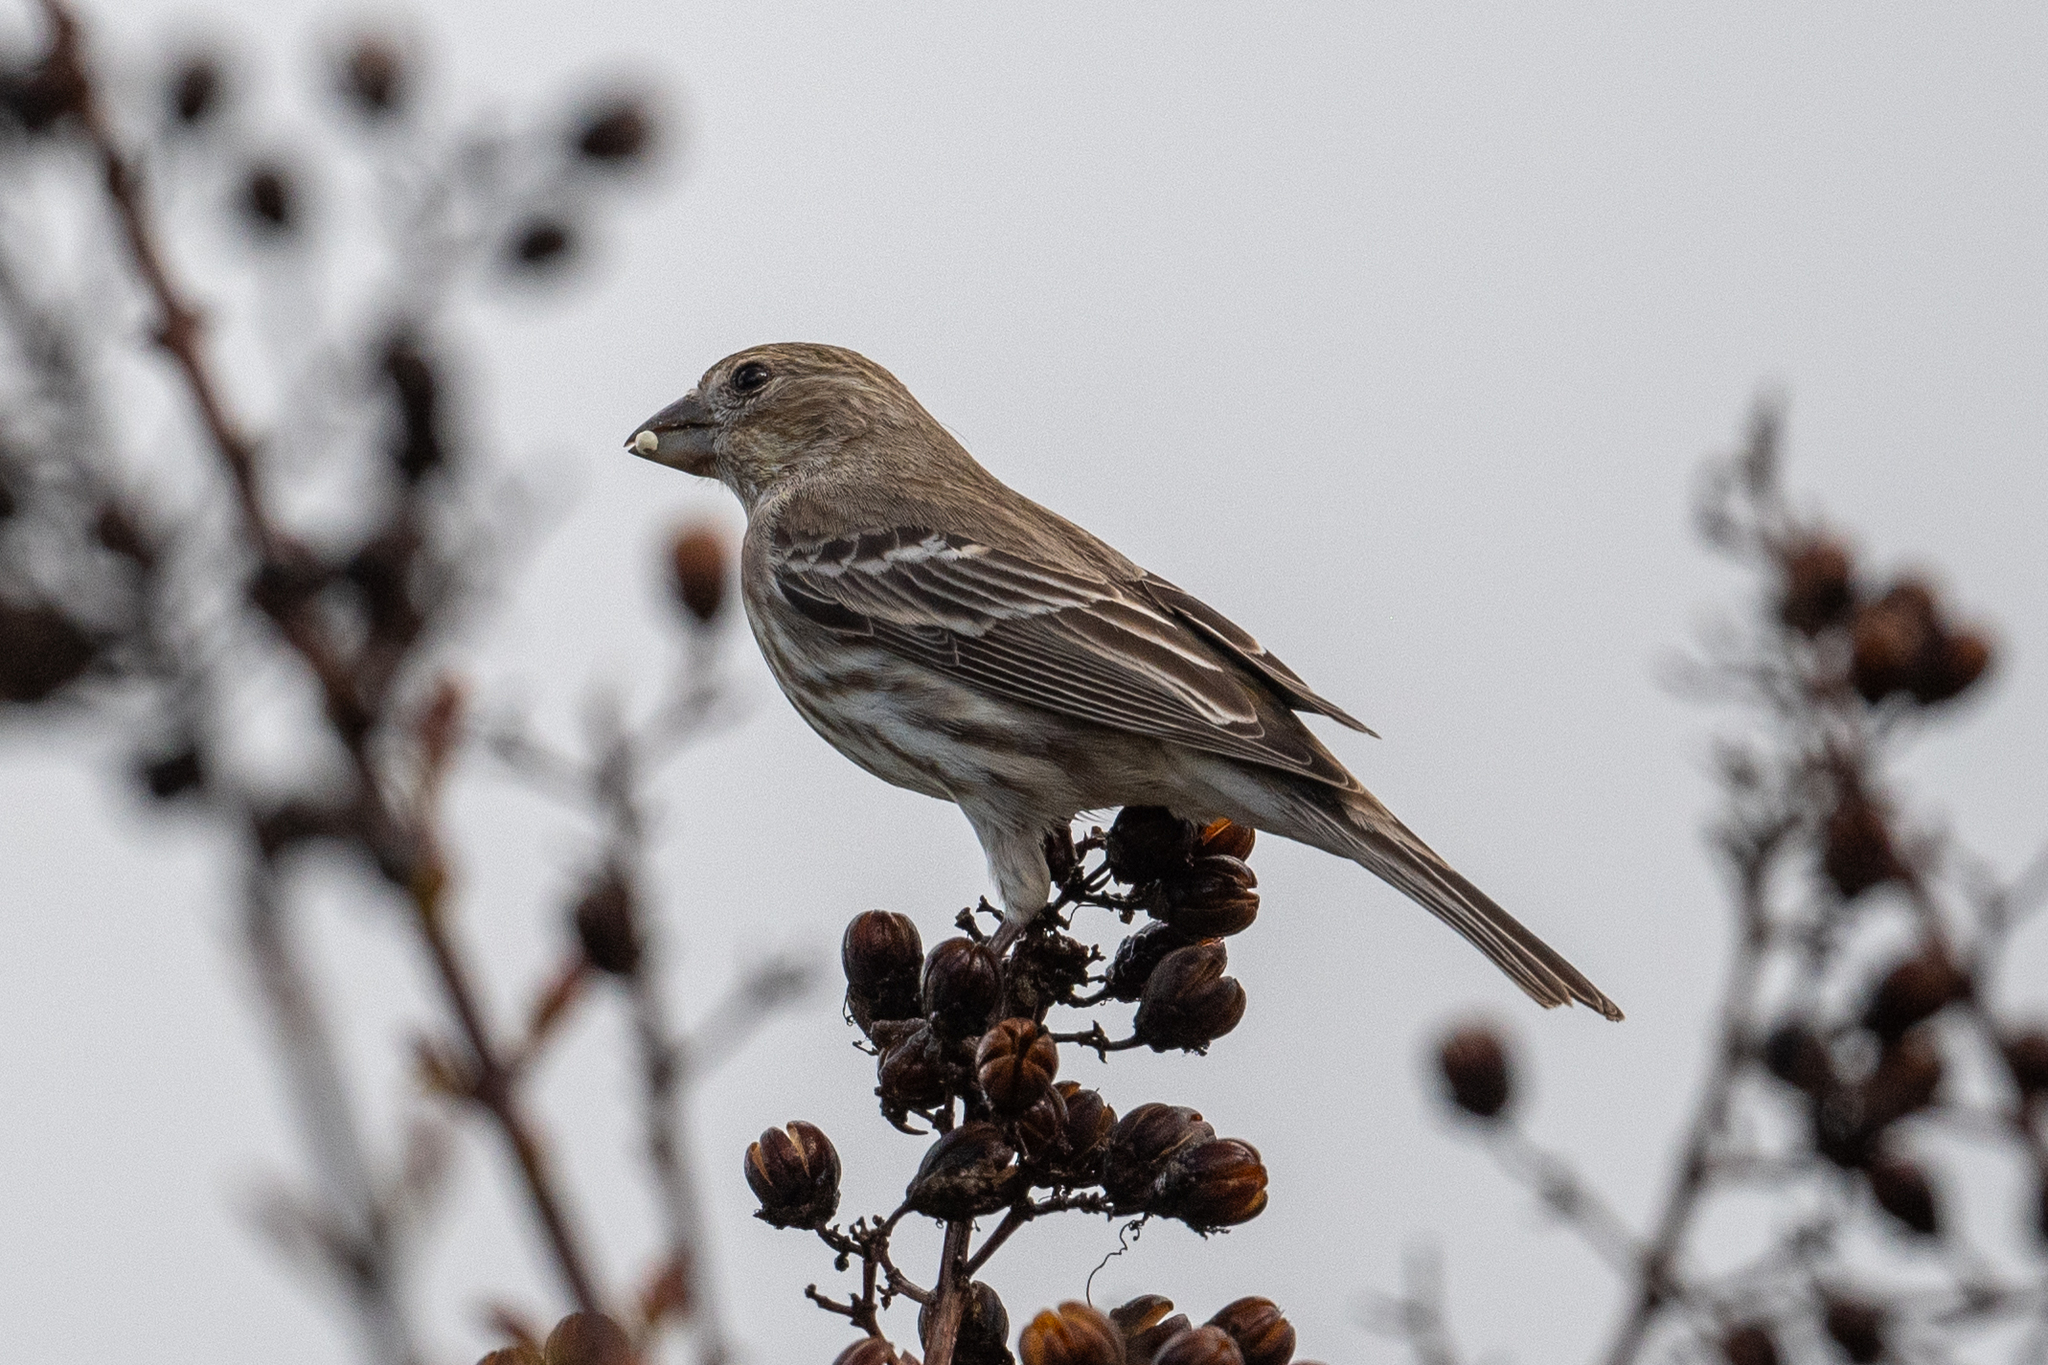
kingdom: Animalia
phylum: Chordata
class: Aves
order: Passeriformes
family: Fringillidae
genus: Haemorhous
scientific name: Haemorhous mexicanus
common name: House finch
